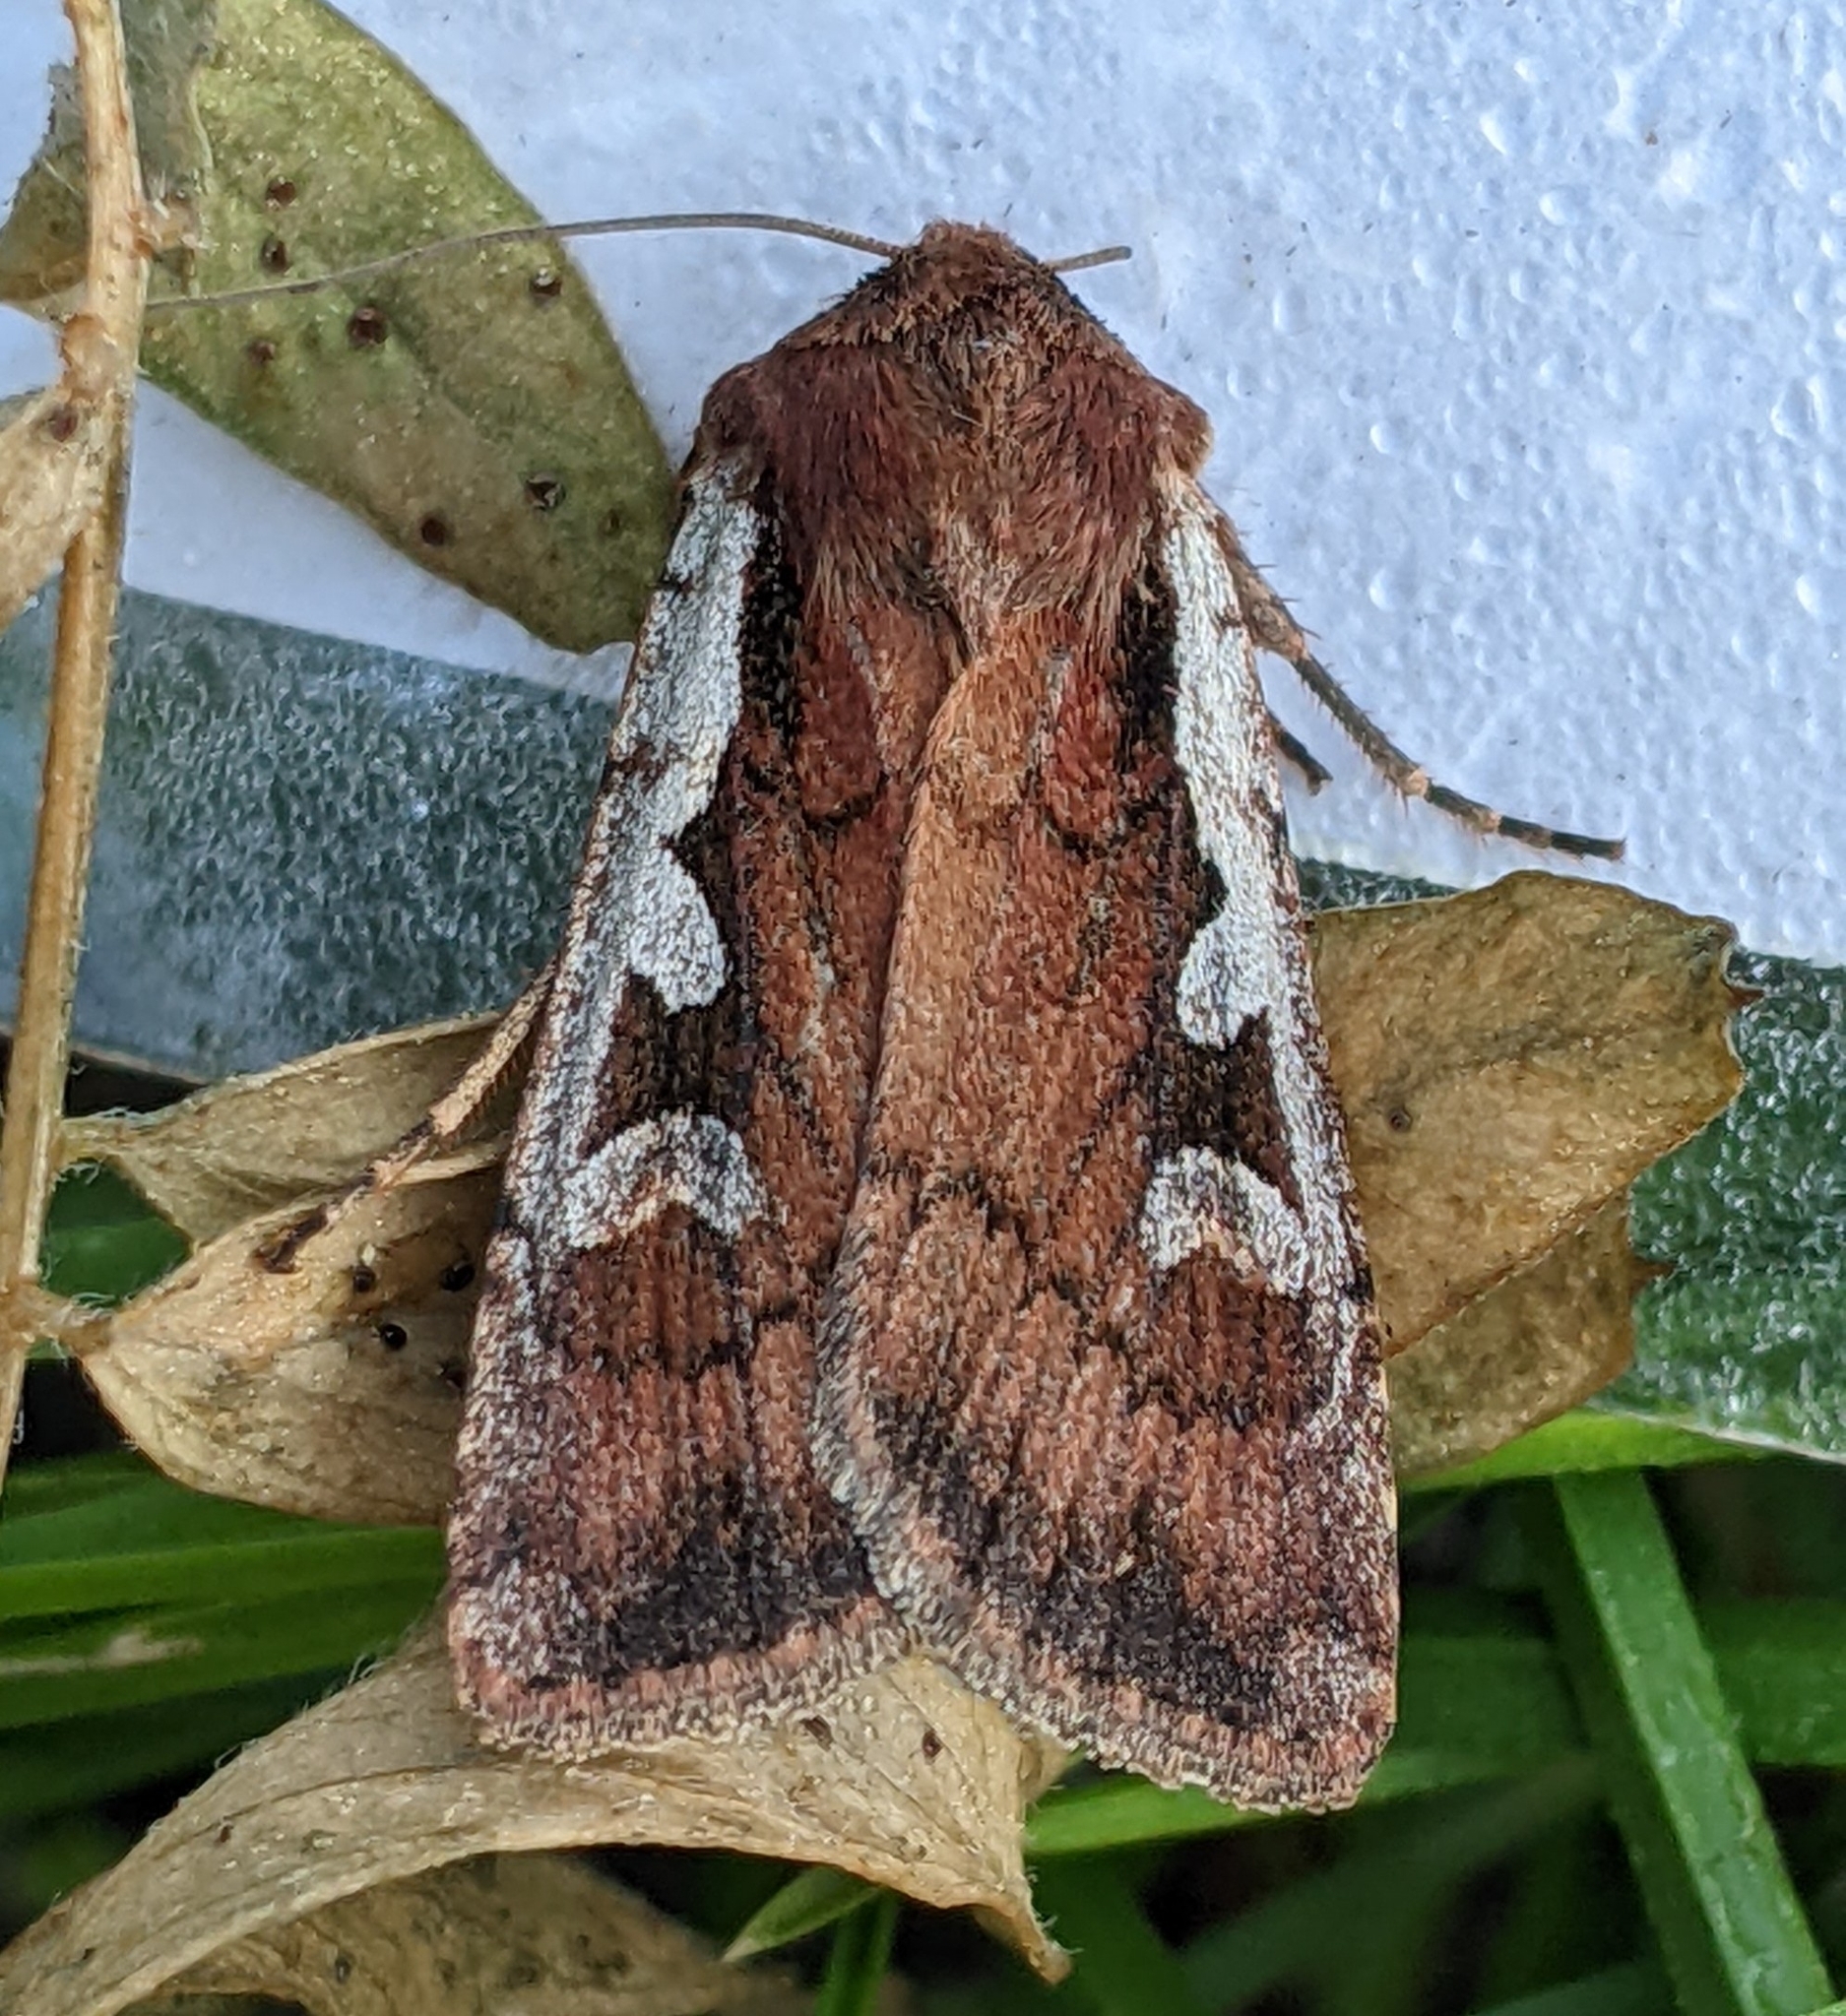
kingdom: Animalia
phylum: Arthropoda
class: Insecta
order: Lepidoptera
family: Noctuidae
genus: Euxoa
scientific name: Euxoa costata
